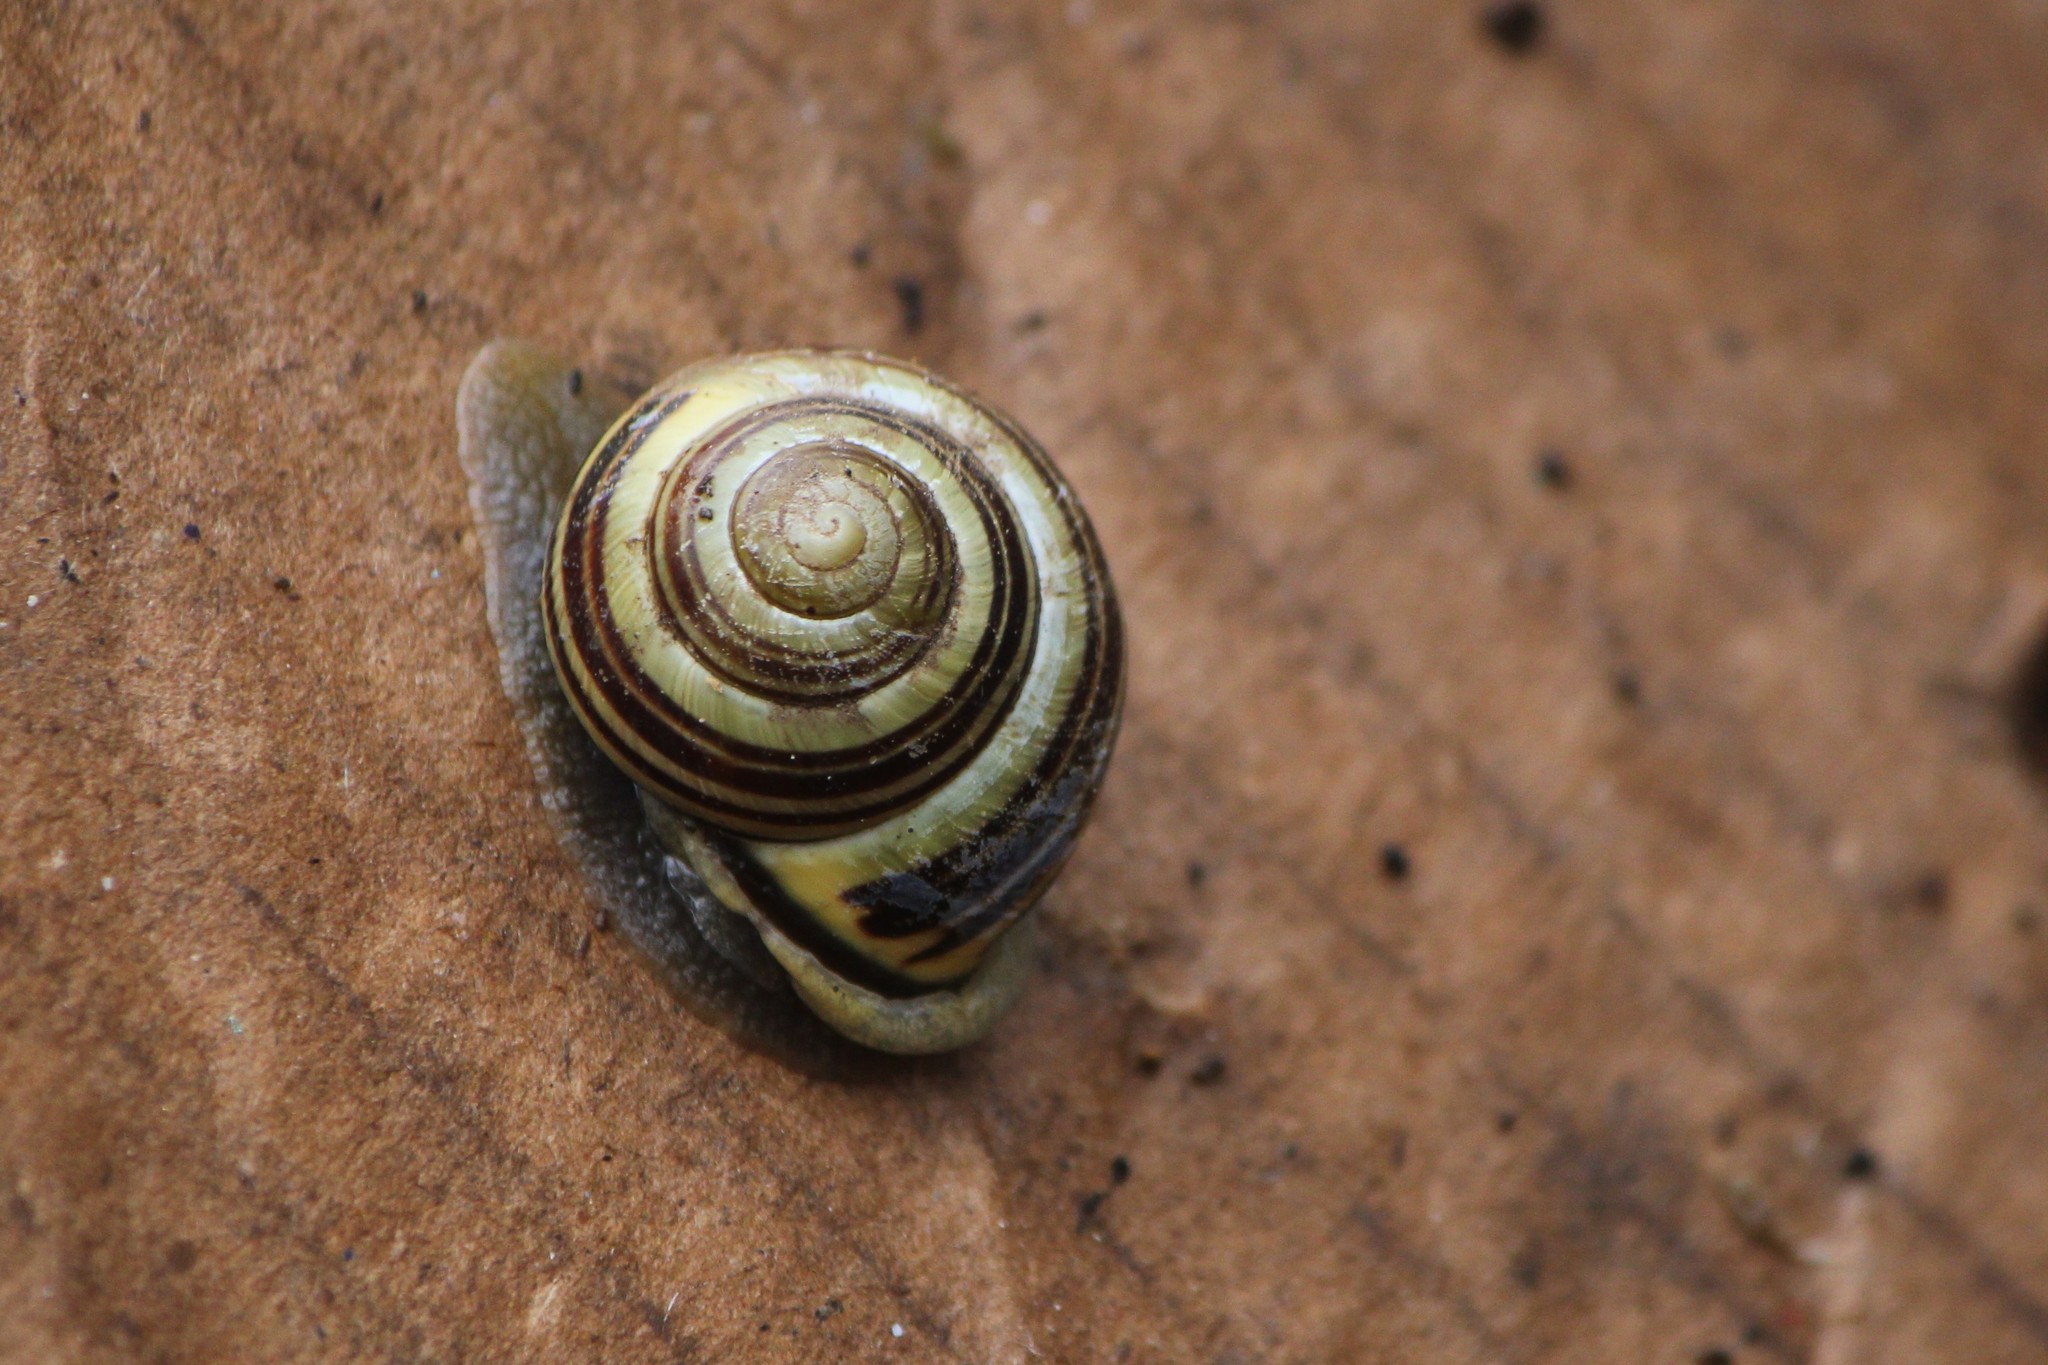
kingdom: Animalia
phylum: Mollusca
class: Gastropoda
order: Stylommatophora
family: Helicidae
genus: Cepaea
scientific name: Cepaea nemoralis
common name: Grovesnail
